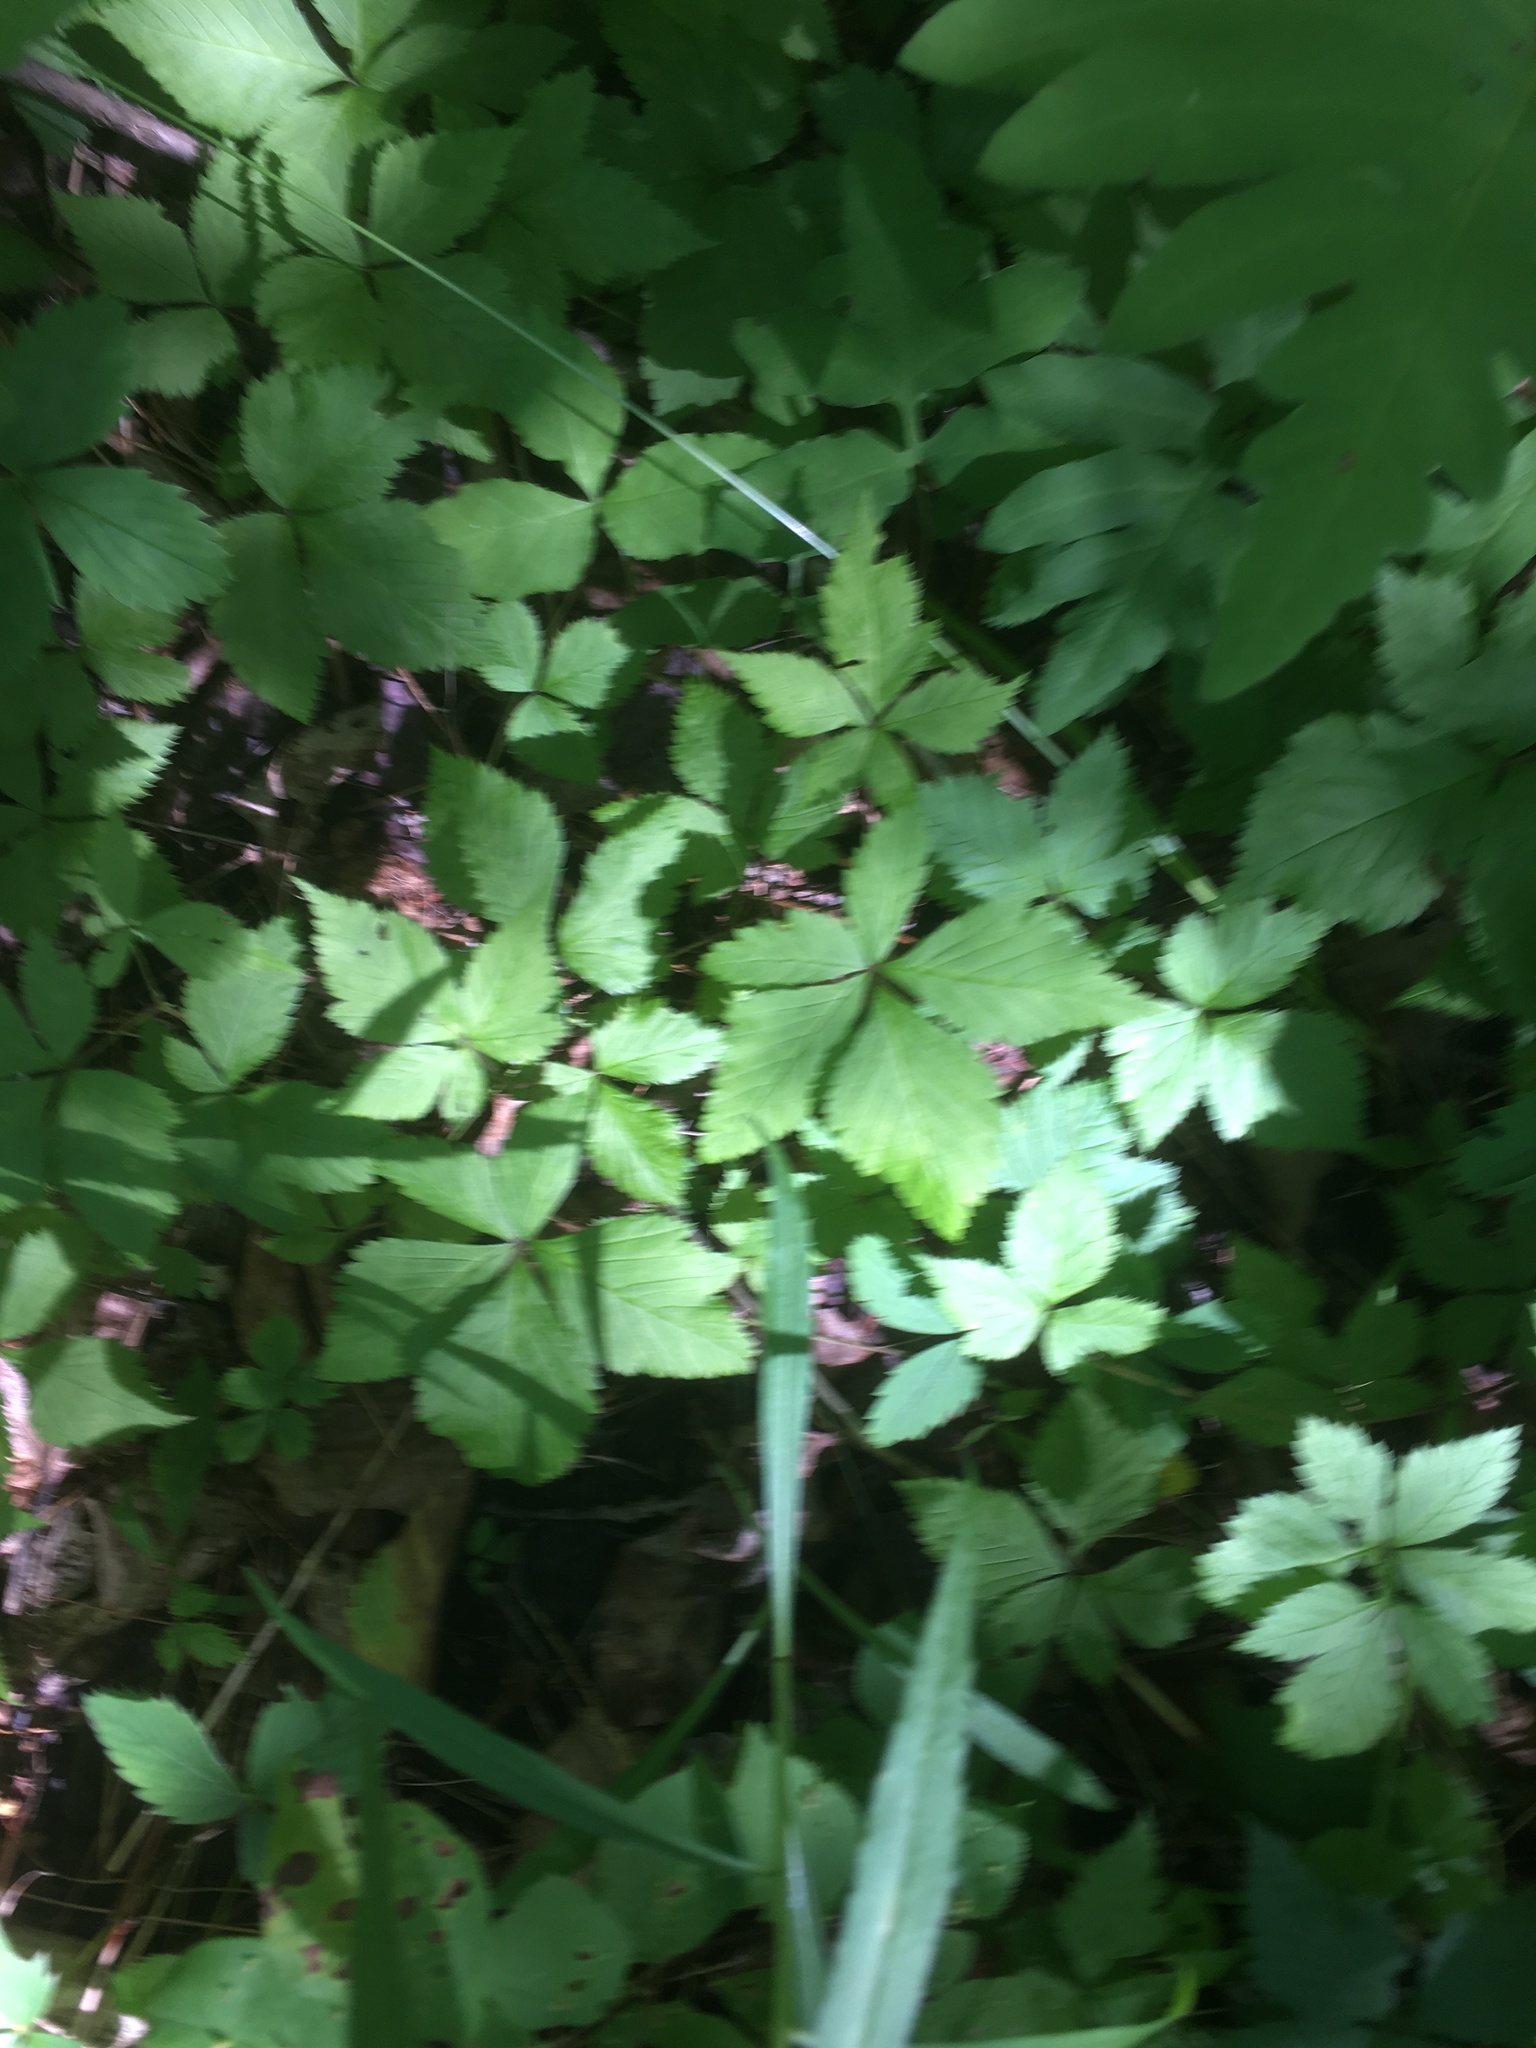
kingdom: Plantae
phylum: Tracheophyta
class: Magnoliopsida
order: Rosales
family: Rosaceae
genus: Rubus
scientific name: Rubus pubescens
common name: Dwarf raspberry
